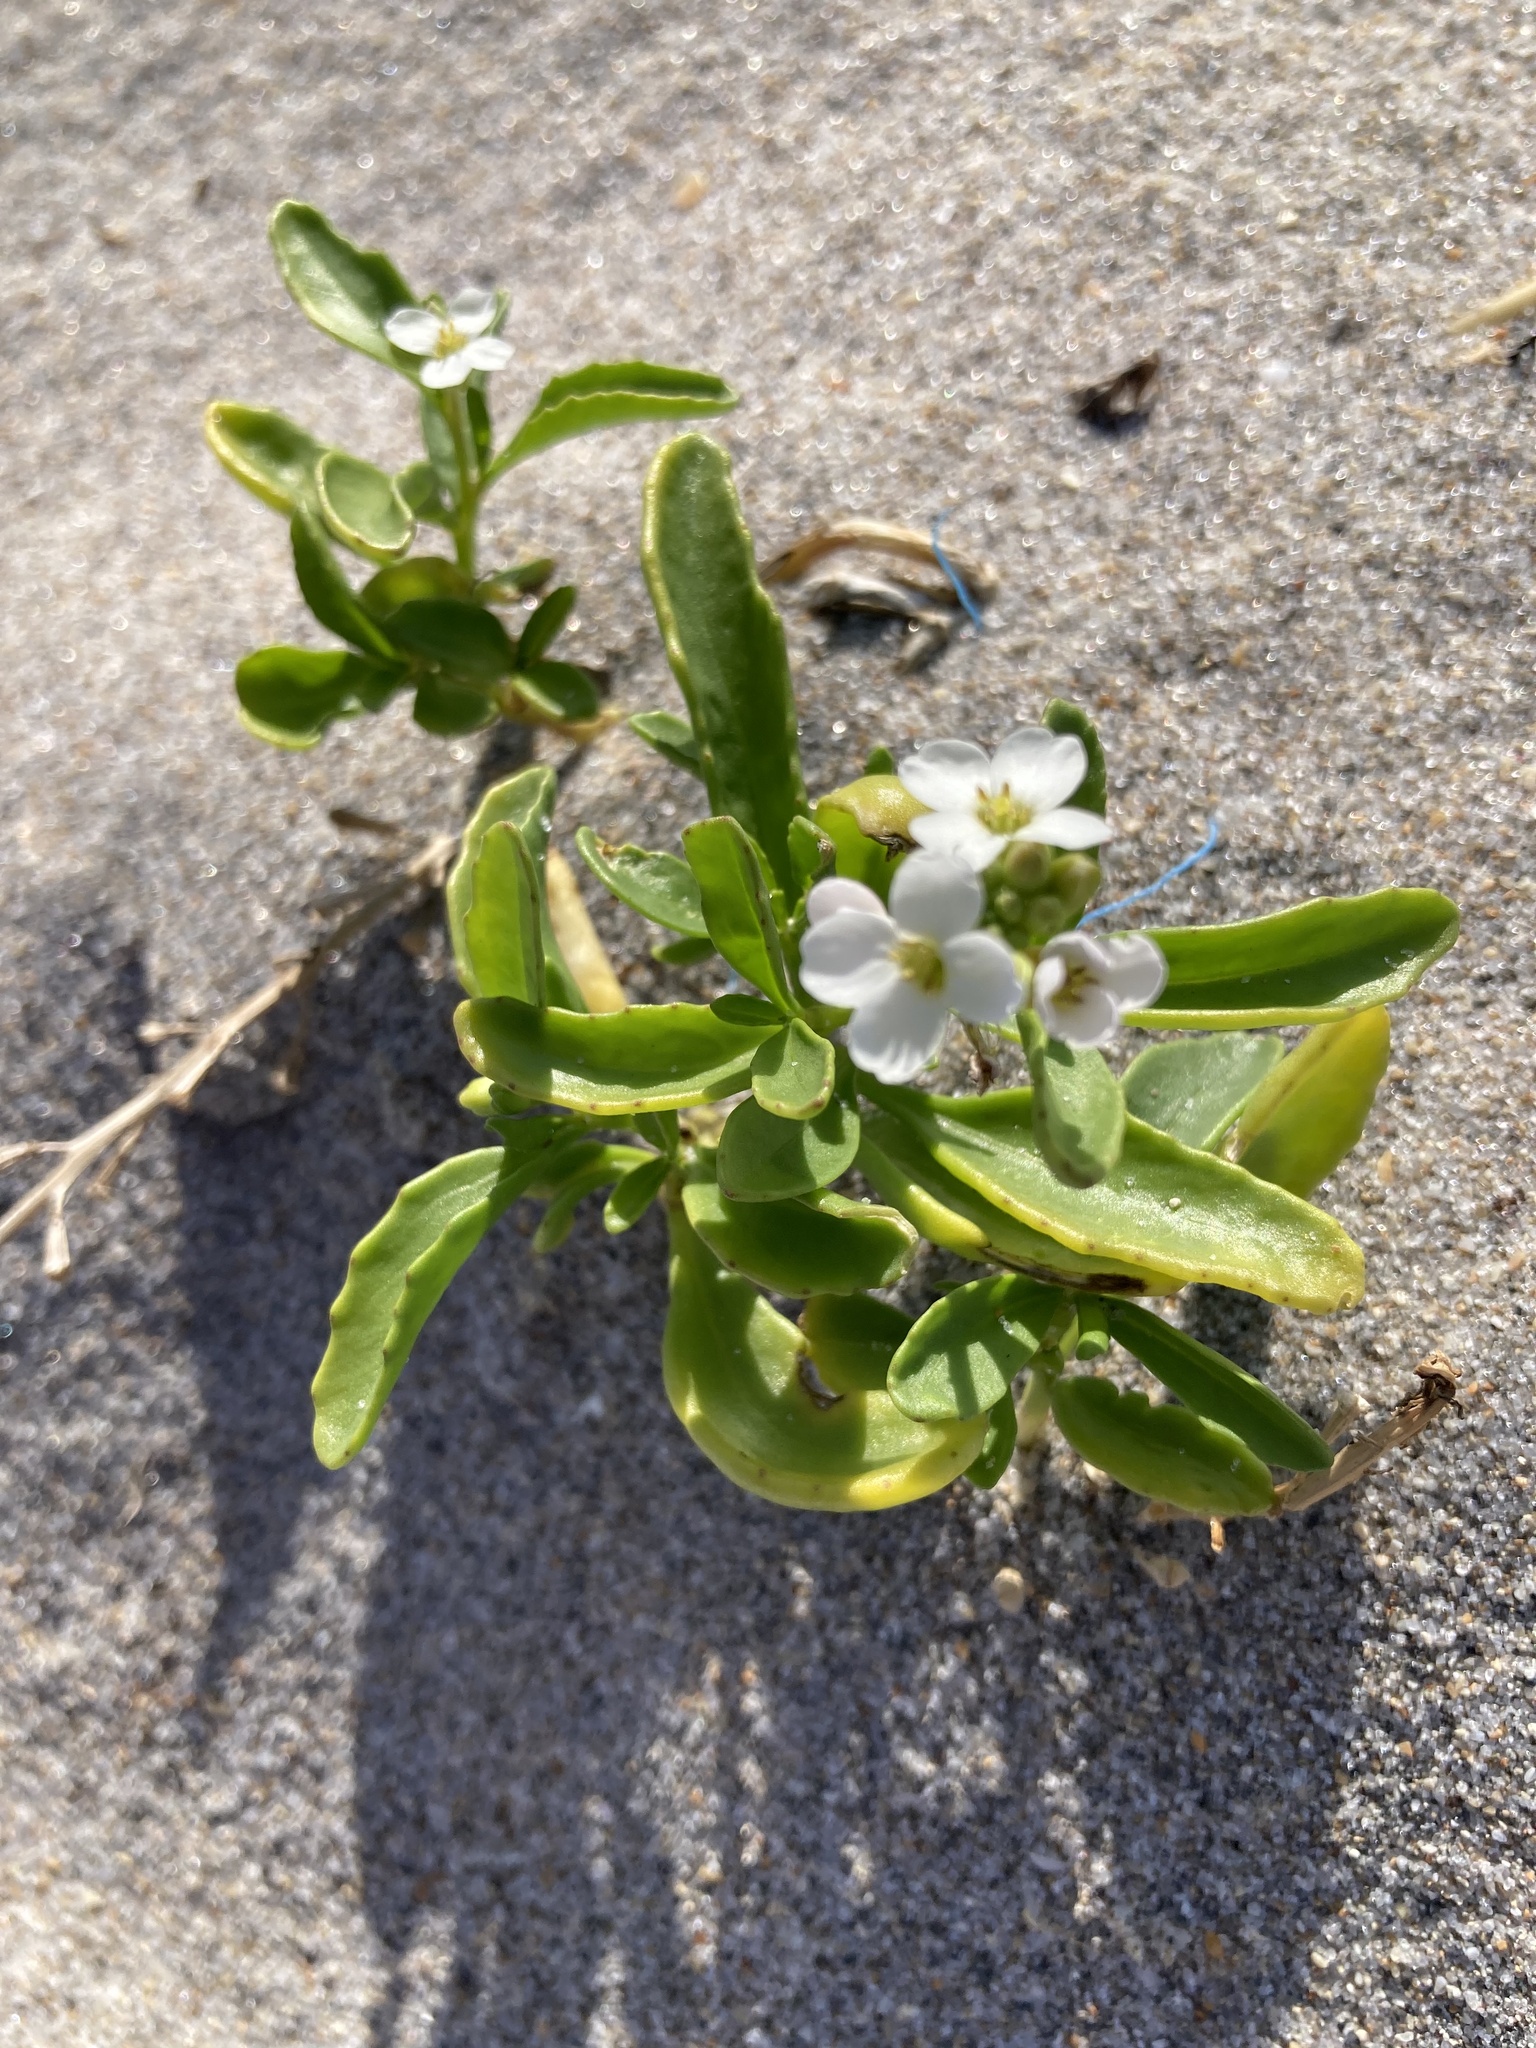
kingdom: Plantae
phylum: Tracheophyta
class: Magnoliopsida
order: Brassicales
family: Brassicaceae
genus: Cakile
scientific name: Cakile lanceolata
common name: Sea rocket
